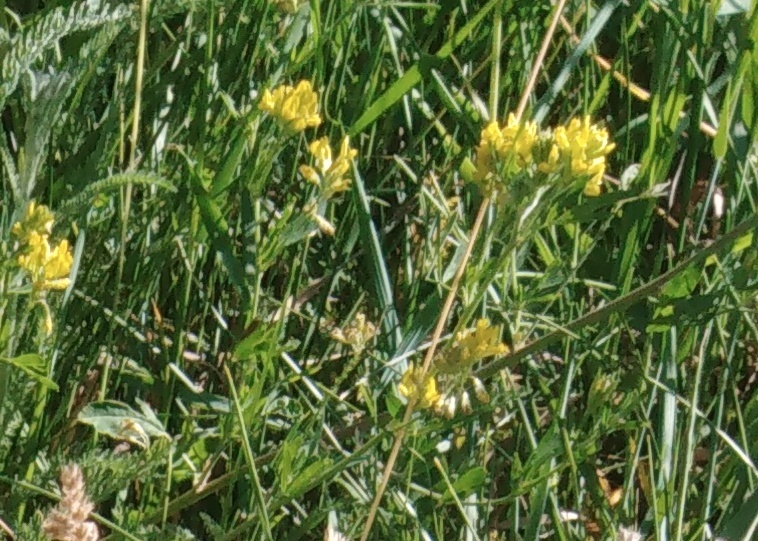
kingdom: Plantae
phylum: Tracheophyta
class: Magnoliopsida
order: Fabales
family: Fabaceae
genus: Medicago
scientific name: Medicago falcata
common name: Sickle medick
